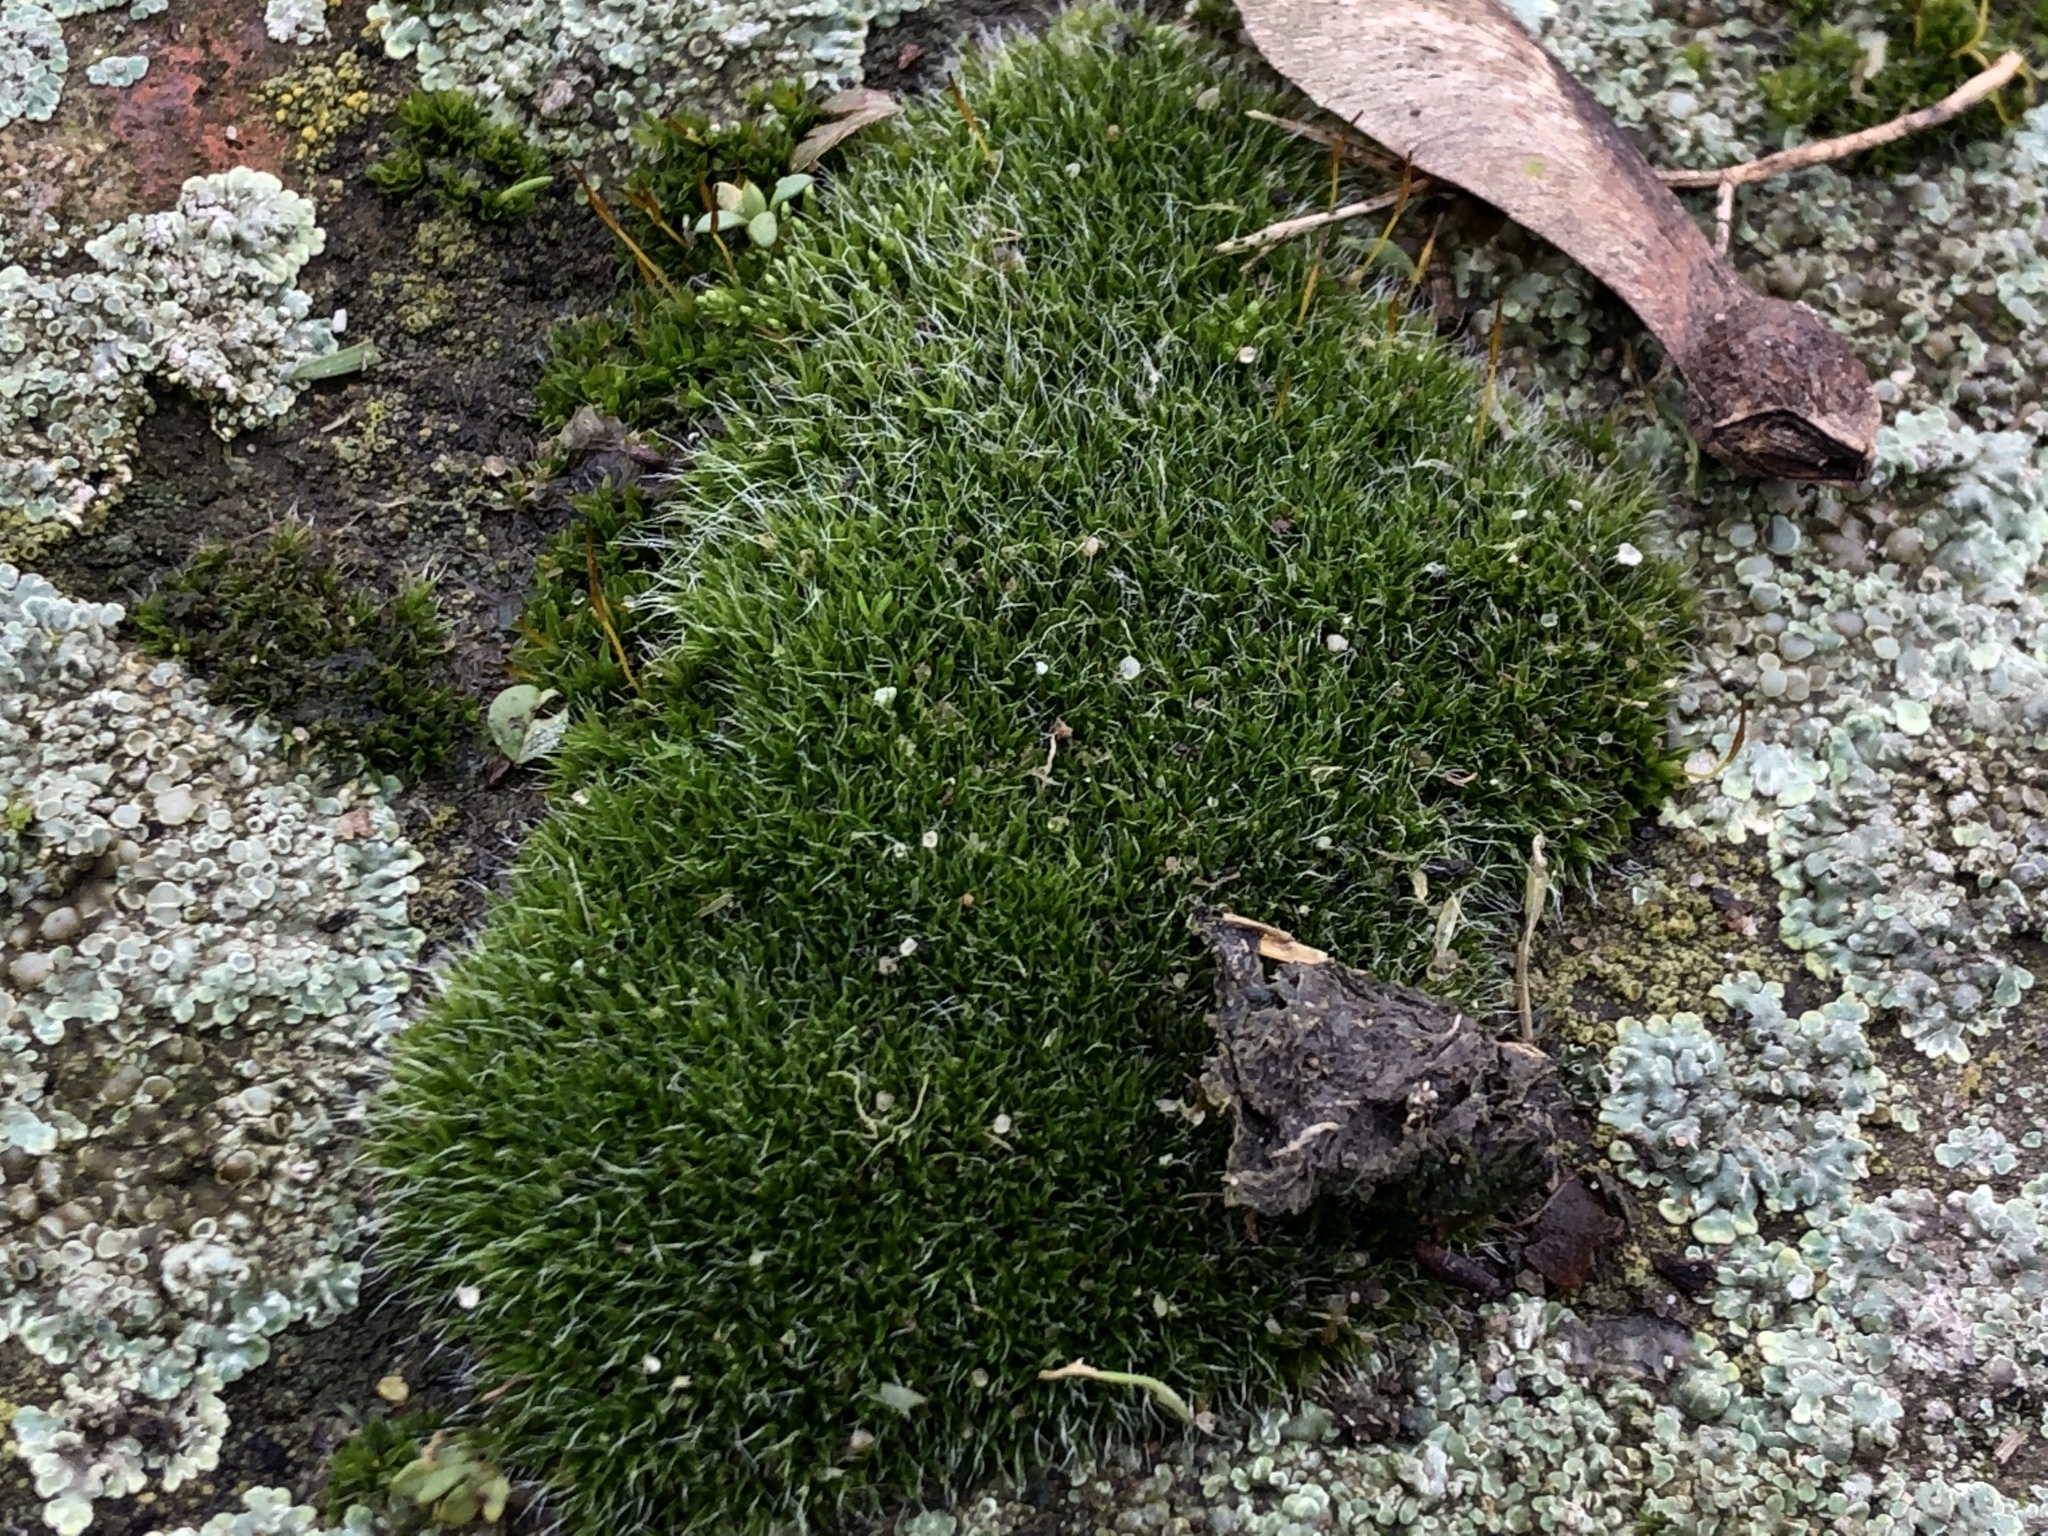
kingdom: Plantae
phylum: Bryophyta
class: Bryopsida
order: Grimmiales
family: Grimmiaceae
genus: Grimmia
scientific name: Grimmia pulvinata
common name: Grey-cushioned grimmia
